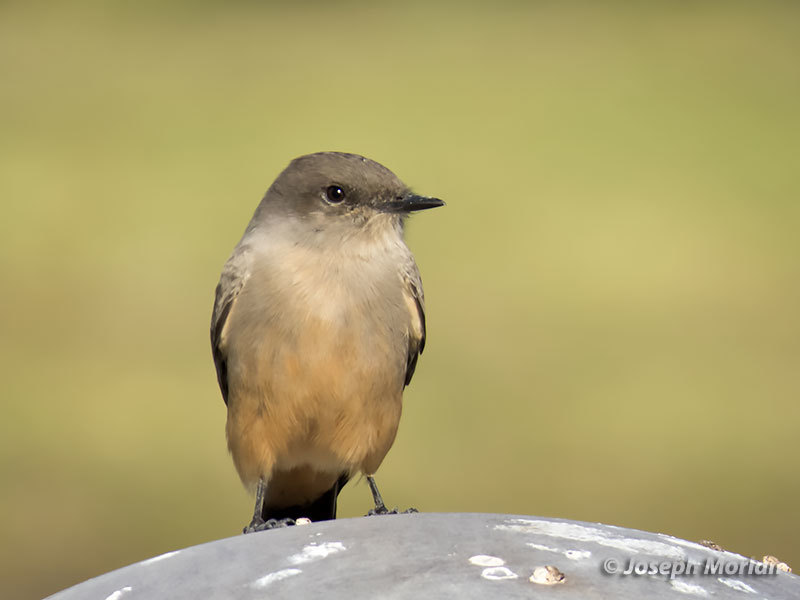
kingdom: Animalia
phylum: Chordata
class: Aves
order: Passeriformes
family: Tyrannidae
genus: Sayornis
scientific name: Sayornis saya
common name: Say's phoebe
